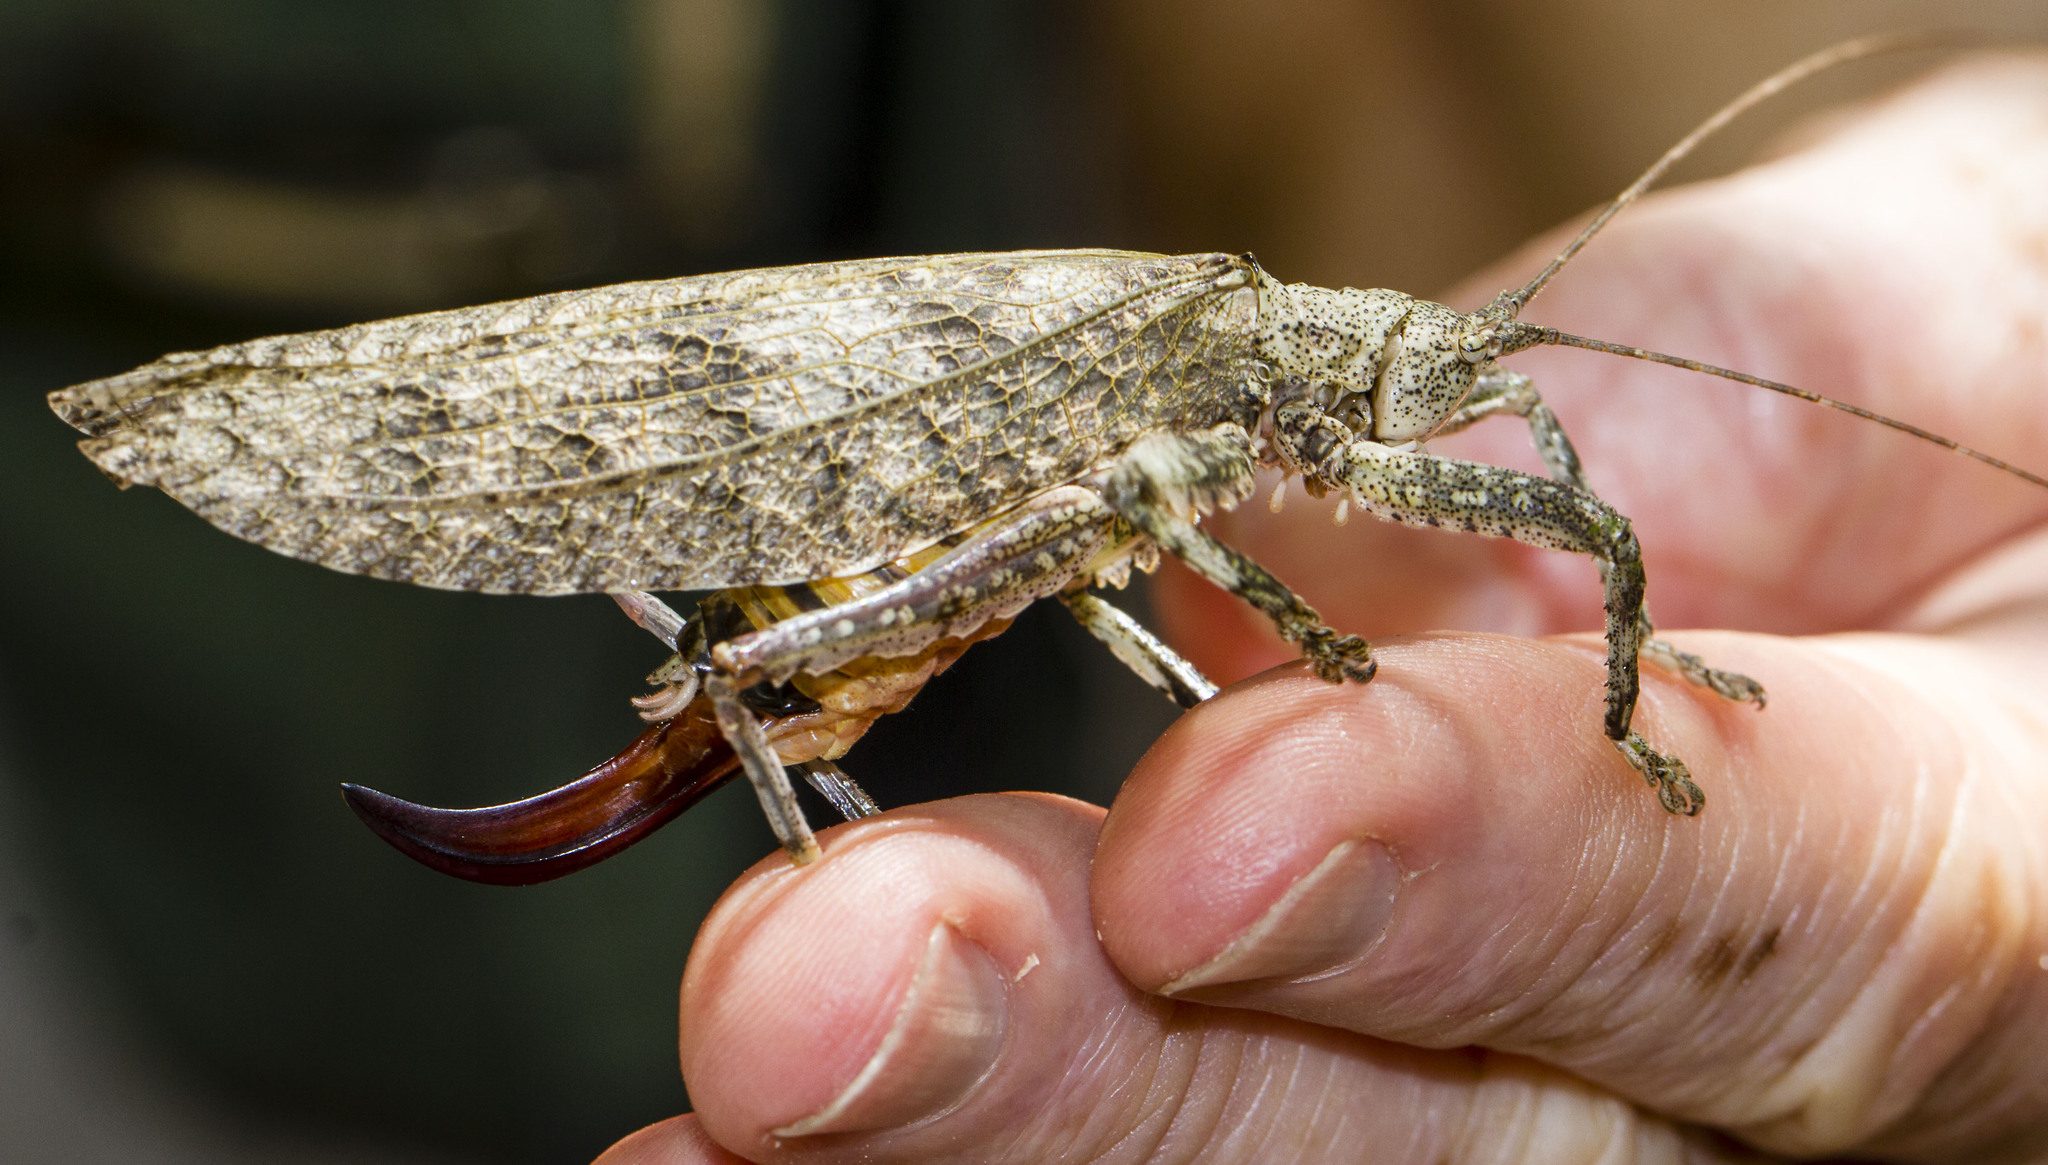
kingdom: Animalia
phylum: Arthropoda
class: Insecta
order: Orthoptera
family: Tettigoniidae
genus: Cymatomerella
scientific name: Cymatomerella spilophora
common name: Greater bark katydid
